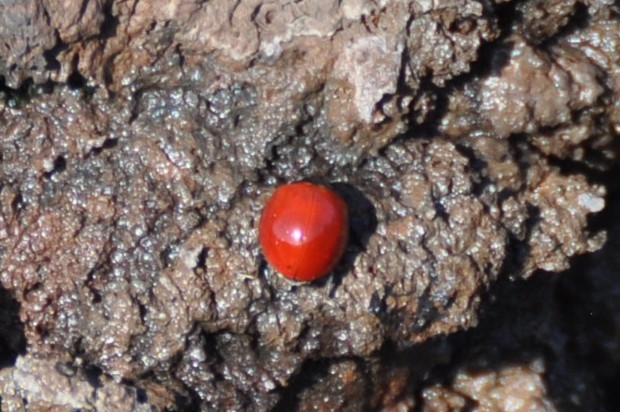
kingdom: Animalia
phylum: Arthropoda
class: Insecta
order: Coleoptera
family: Coccinellidae
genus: Cycloneda
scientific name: Cycloneda sanguinea
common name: Ladybird beetle
